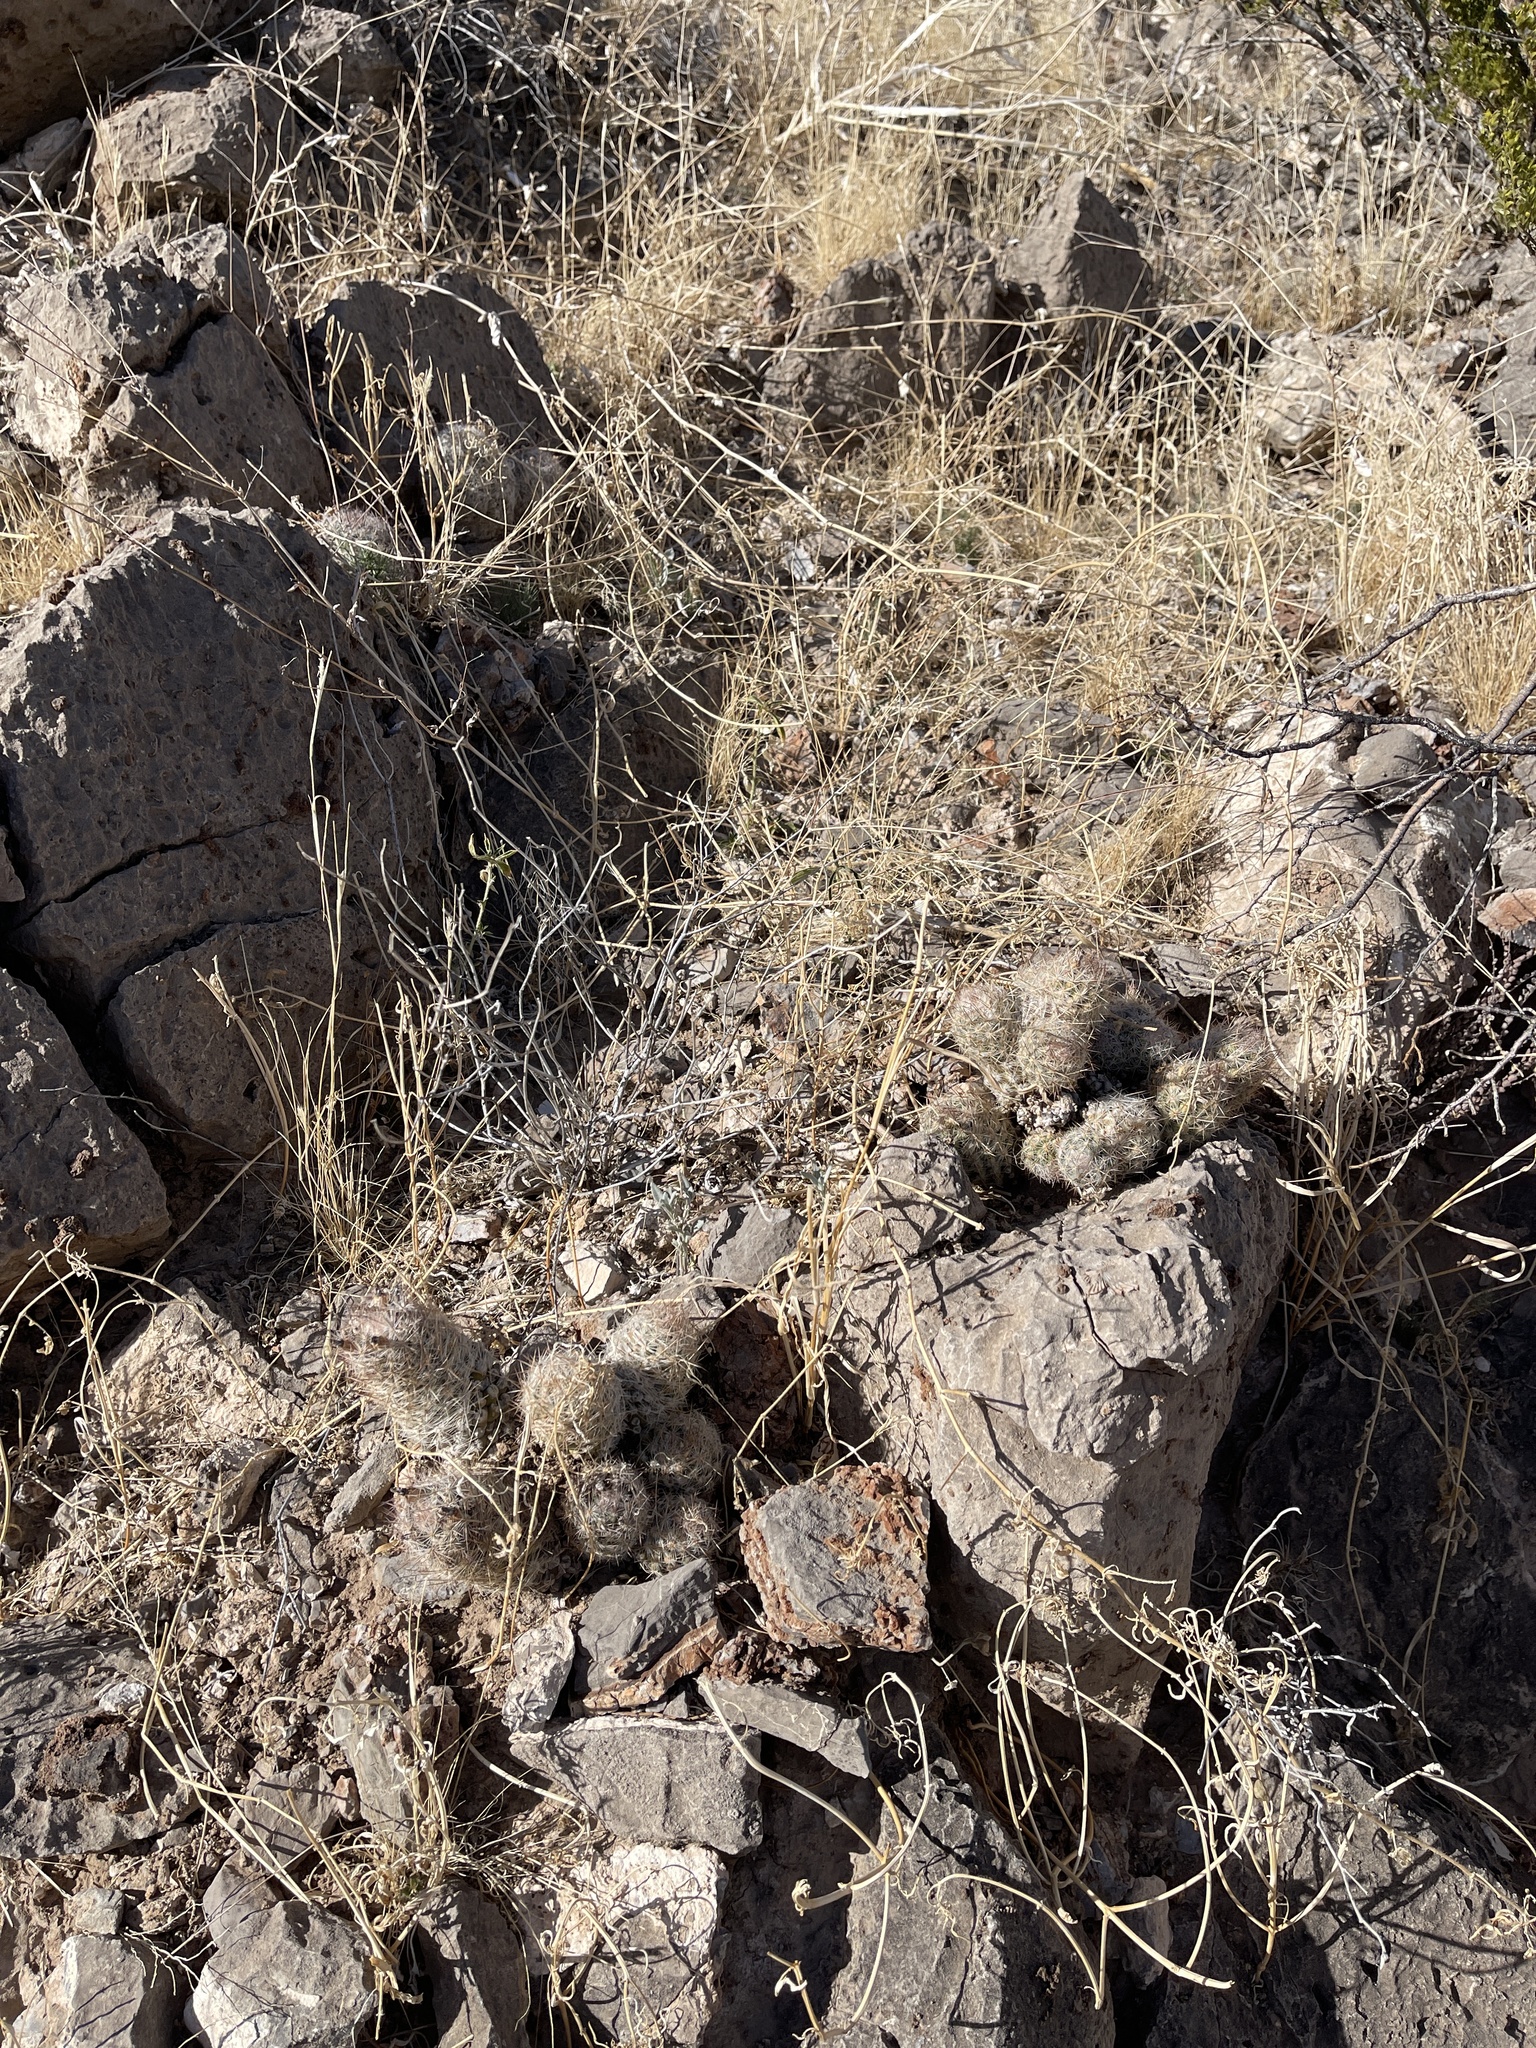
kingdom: Plantae
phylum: Tracheophyta
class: Magnoliopsida
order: Caryophyllales
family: Cactaceae
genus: Pelecyphora
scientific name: Pelecyphora tuberculosa
